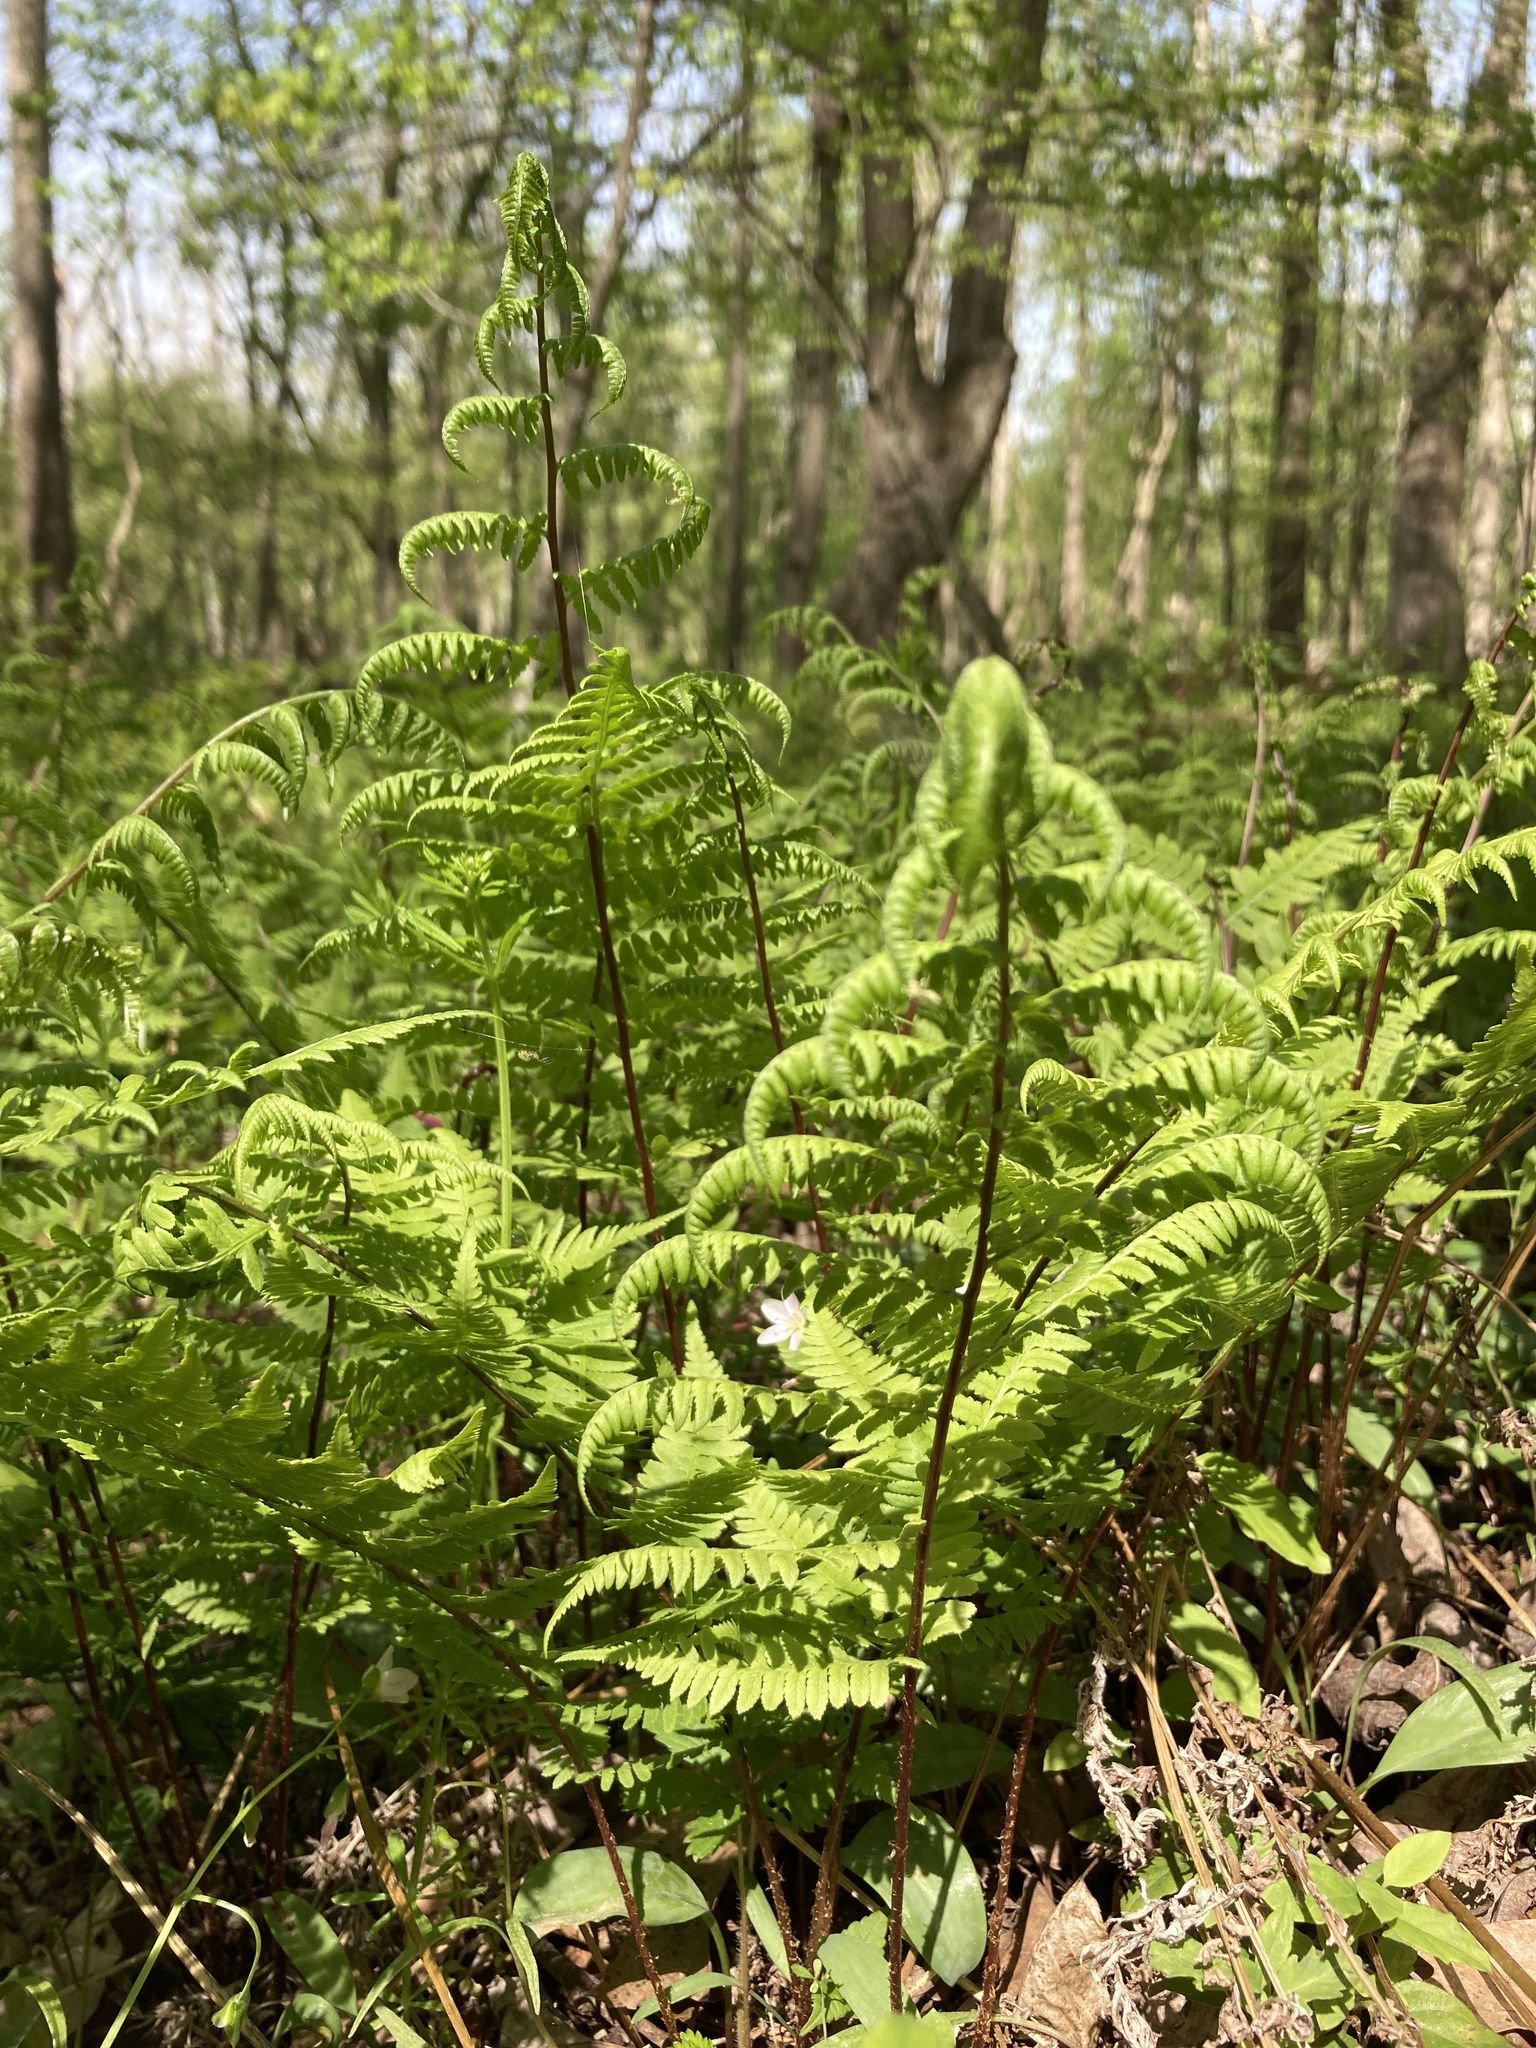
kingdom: Plantae
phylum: Tracheophyta
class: Polypodiopsida
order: Polypodiales
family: Athyriaceae
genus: Athyrium
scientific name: Athyrium asplenioides
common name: Southern lady fern
